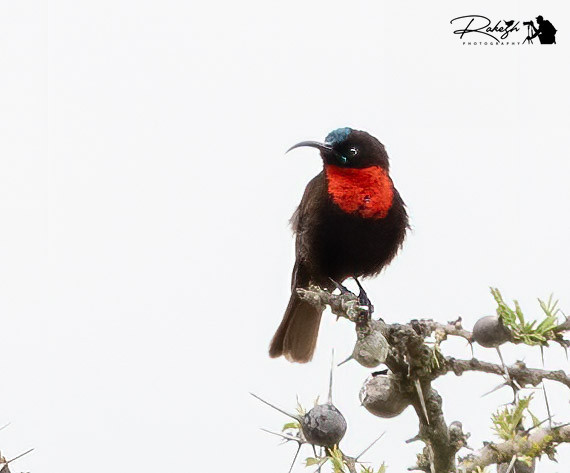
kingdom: Animalia
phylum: Chordata
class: Aves
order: Passeriformes
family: Nectariniidae
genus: Chalcomitra
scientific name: Chalcomitra senegalensis
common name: Scarlet-chested sunbird
